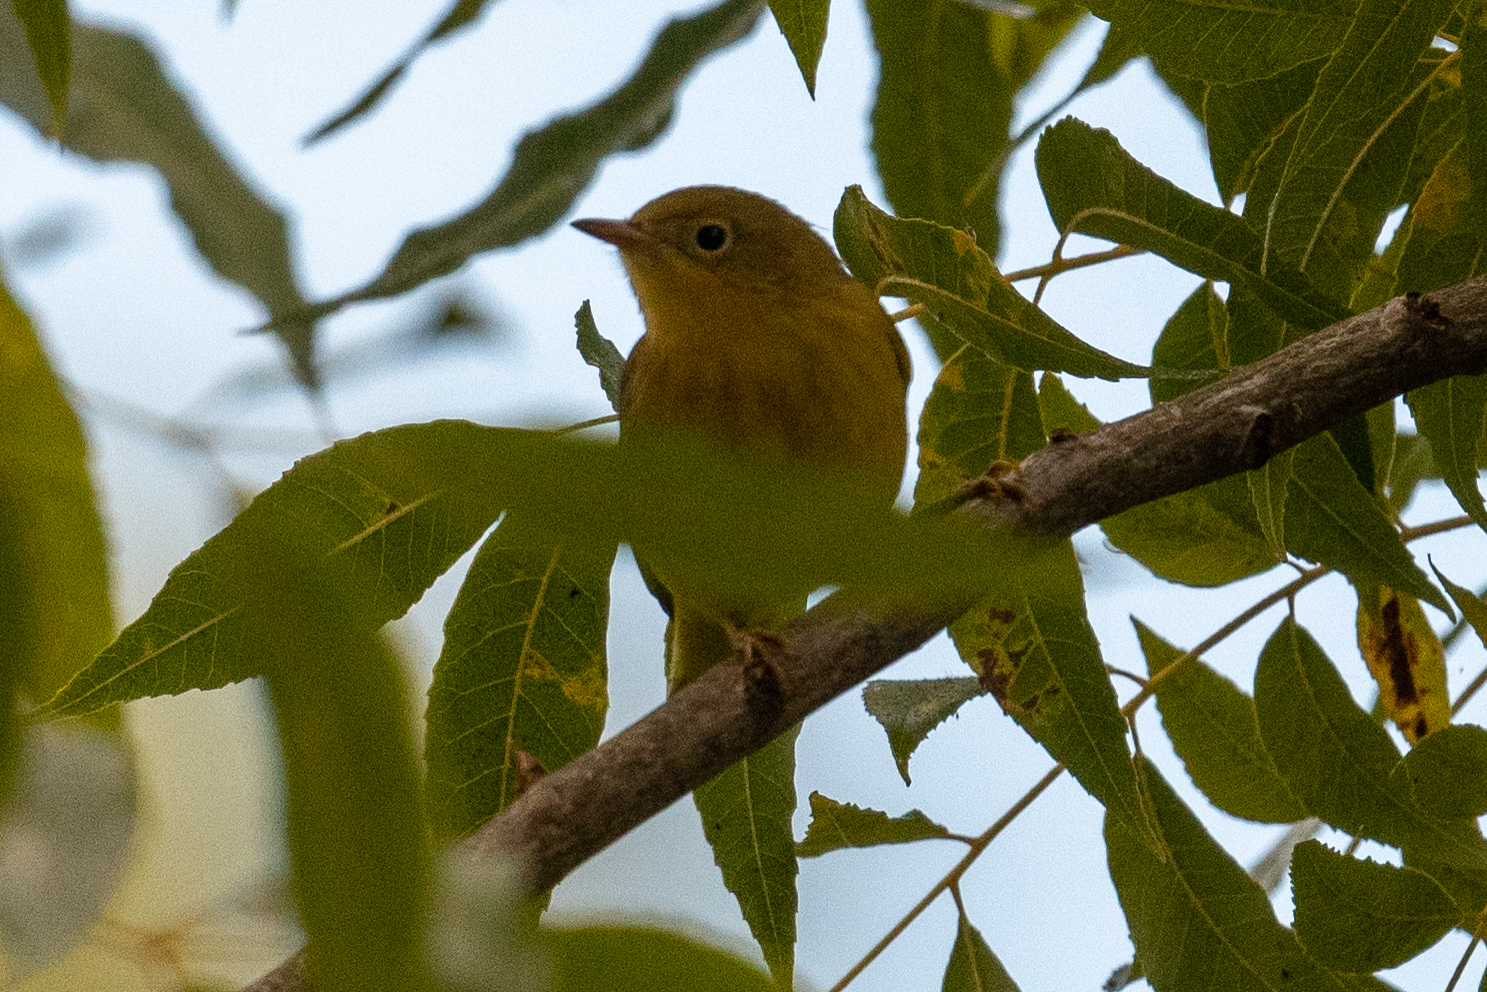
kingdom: Animalia
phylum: Chordata
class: Aves
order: Passeriformes
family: Parulidae
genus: Setophaga
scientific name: Setophaga petechia
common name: Yellow warbler
